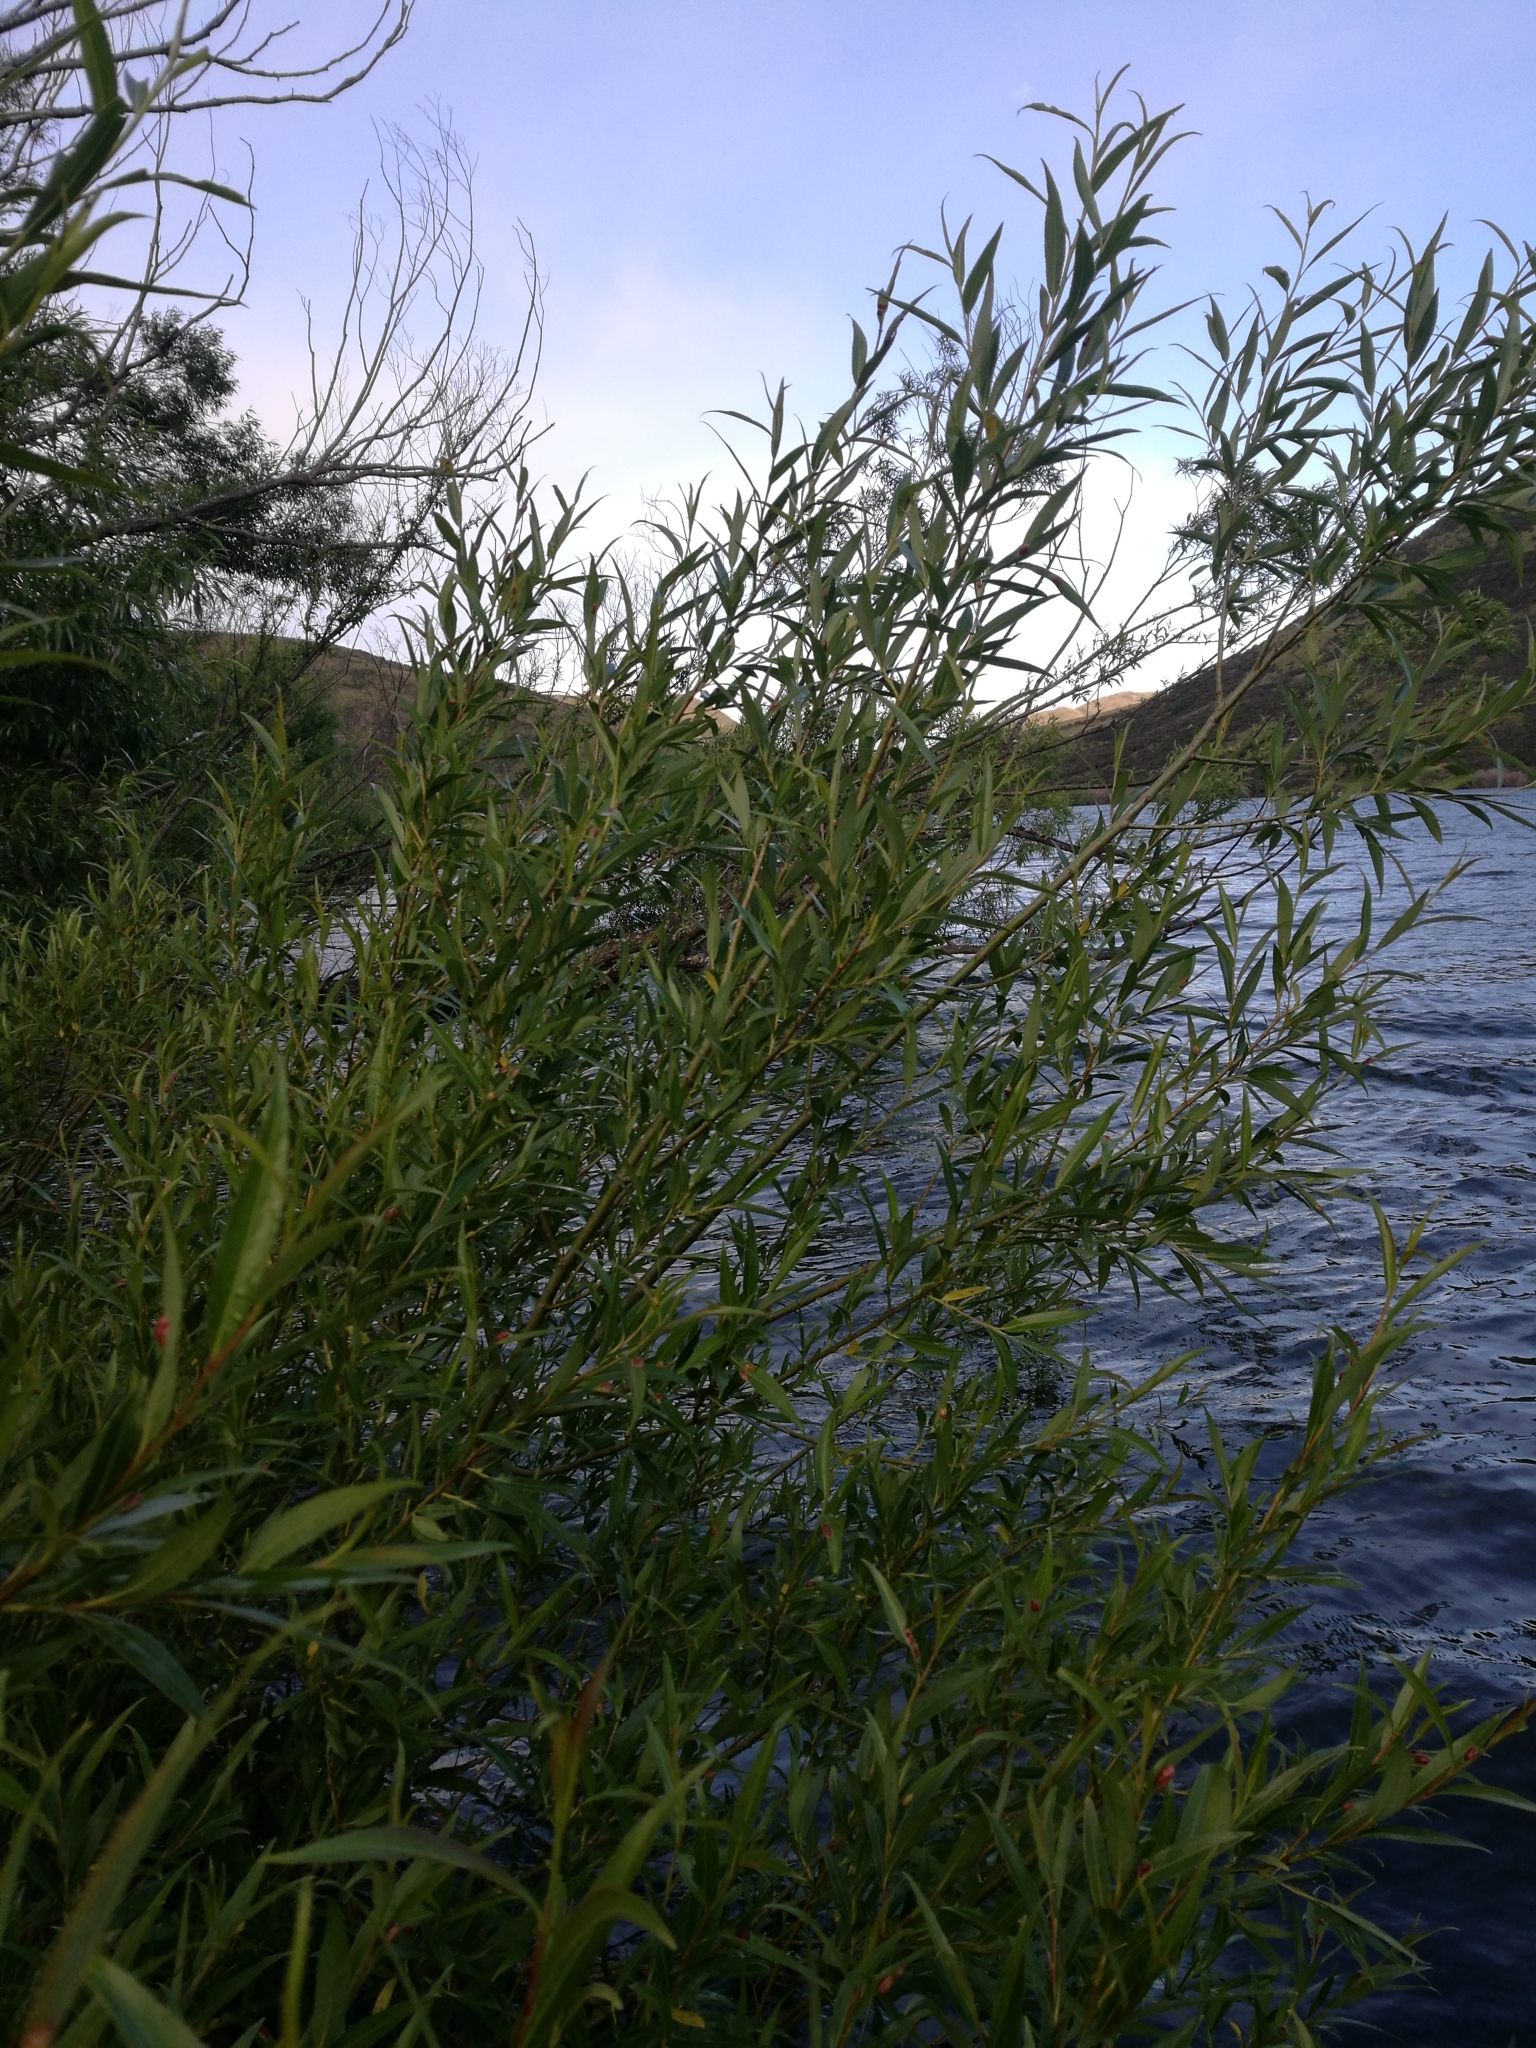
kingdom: Plantae
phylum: Tracheophyta
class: Magnoliopsida
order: Malpighiales
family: Salicaceae
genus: Salix
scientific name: Salix fragilis
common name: Crack willow
